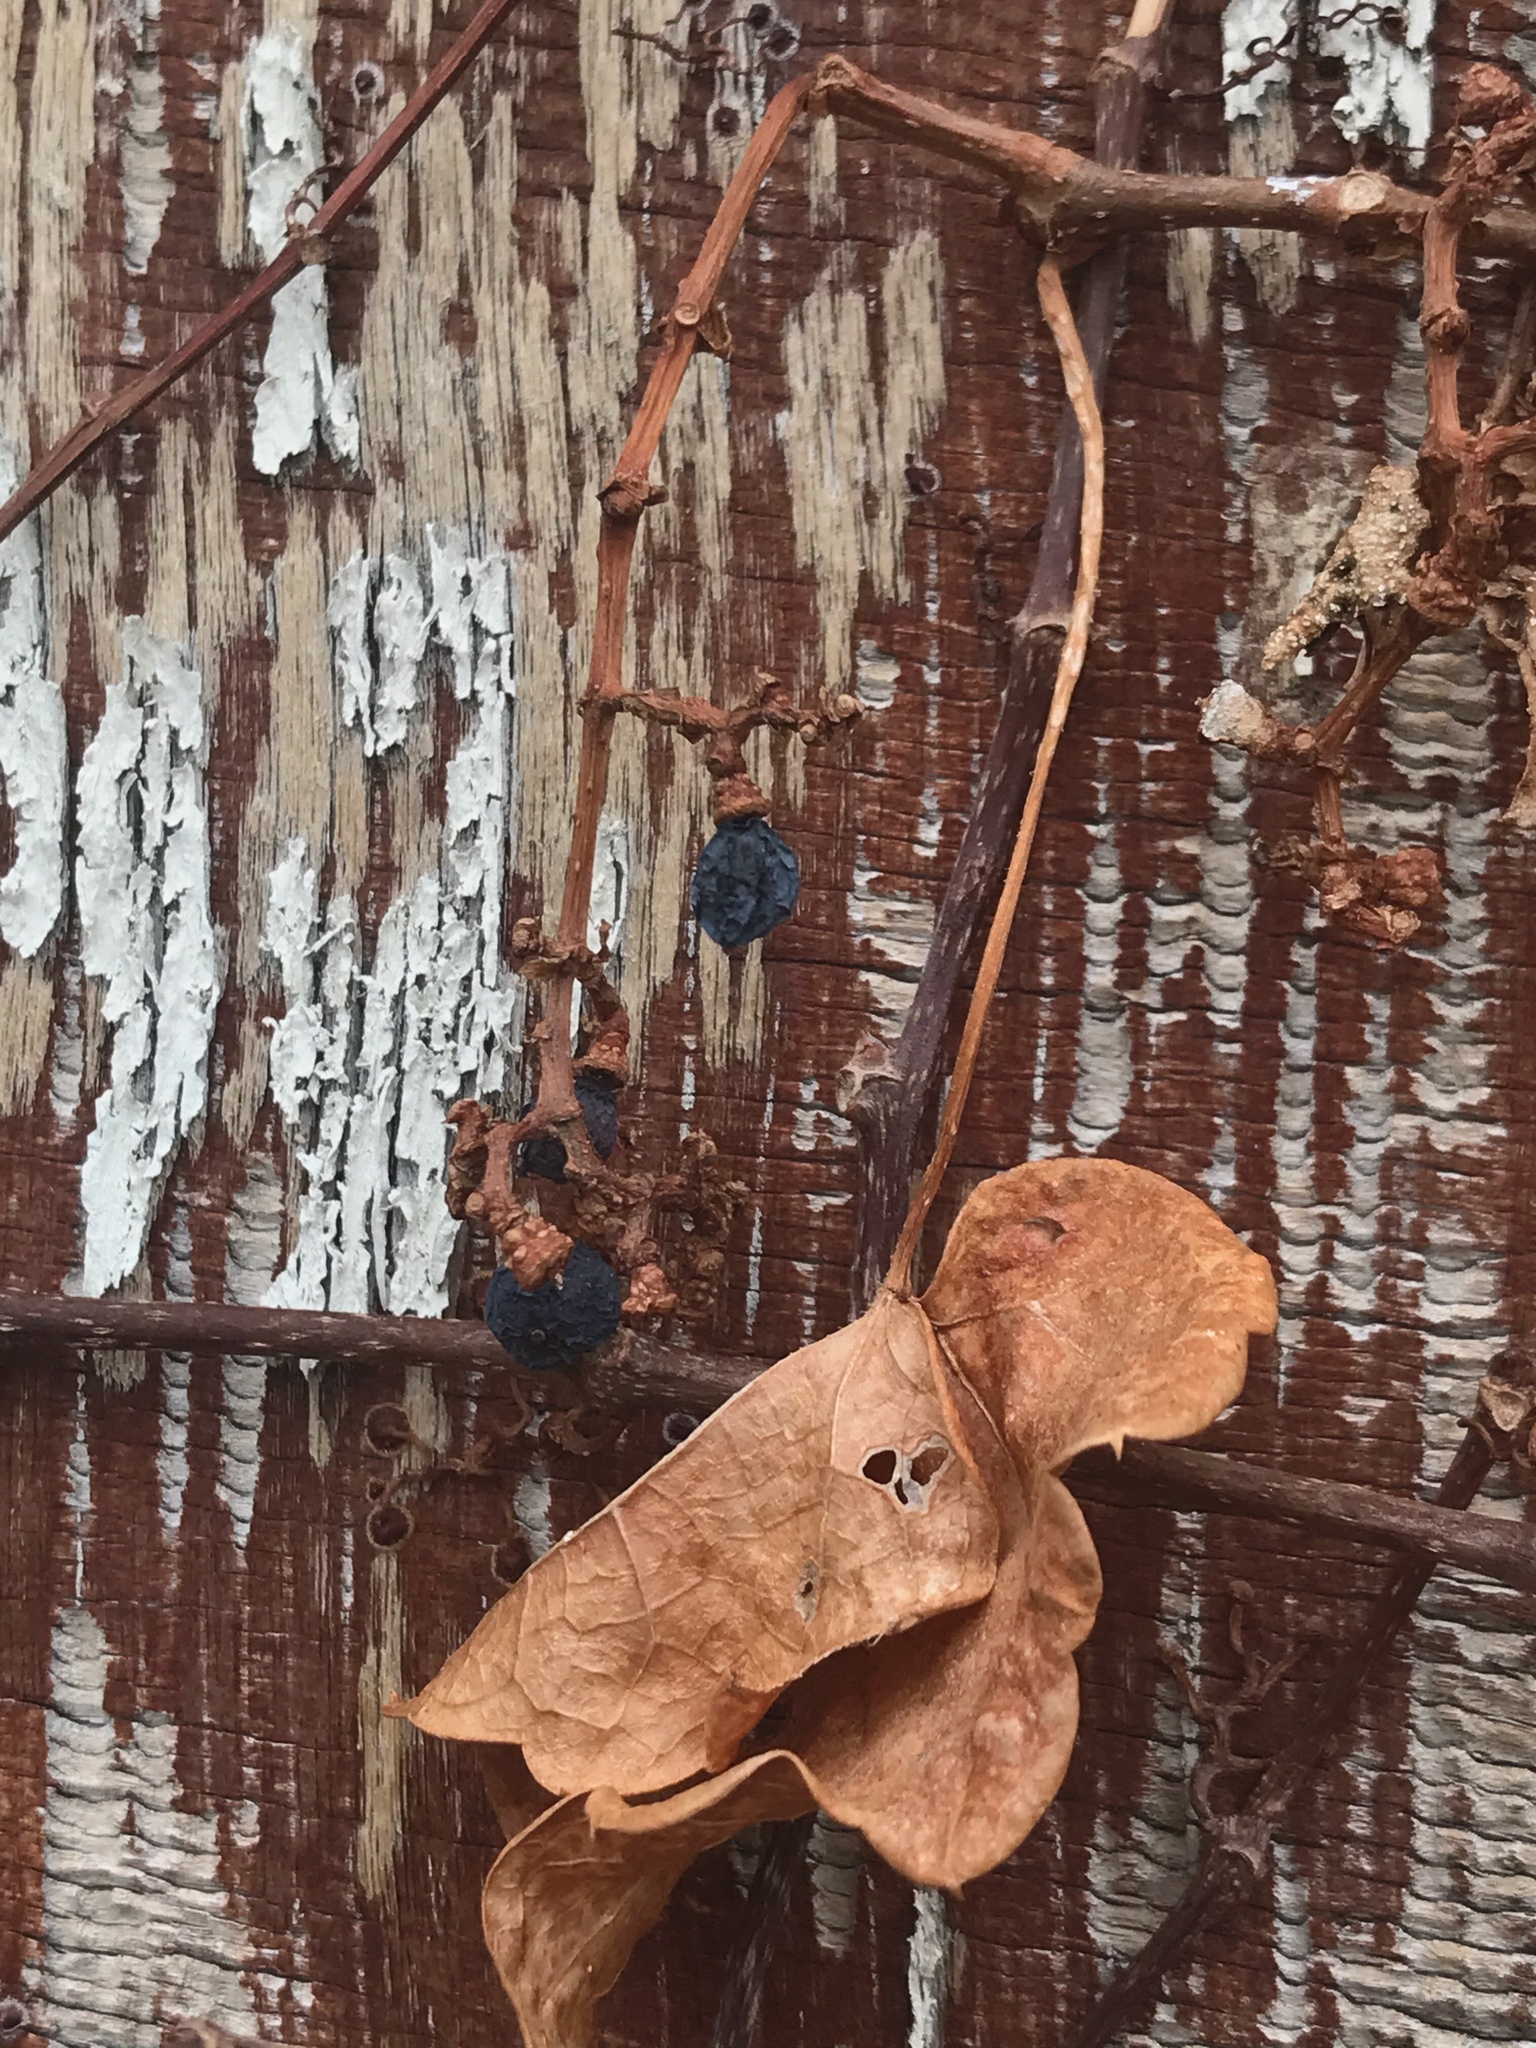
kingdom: Plantae
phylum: Tracheophyta
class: Magnoliopsida
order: Vitales
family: Vitaceae
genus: Parthenocissus
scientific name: Parthenocissus tricuspidata
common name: Boston ivy
